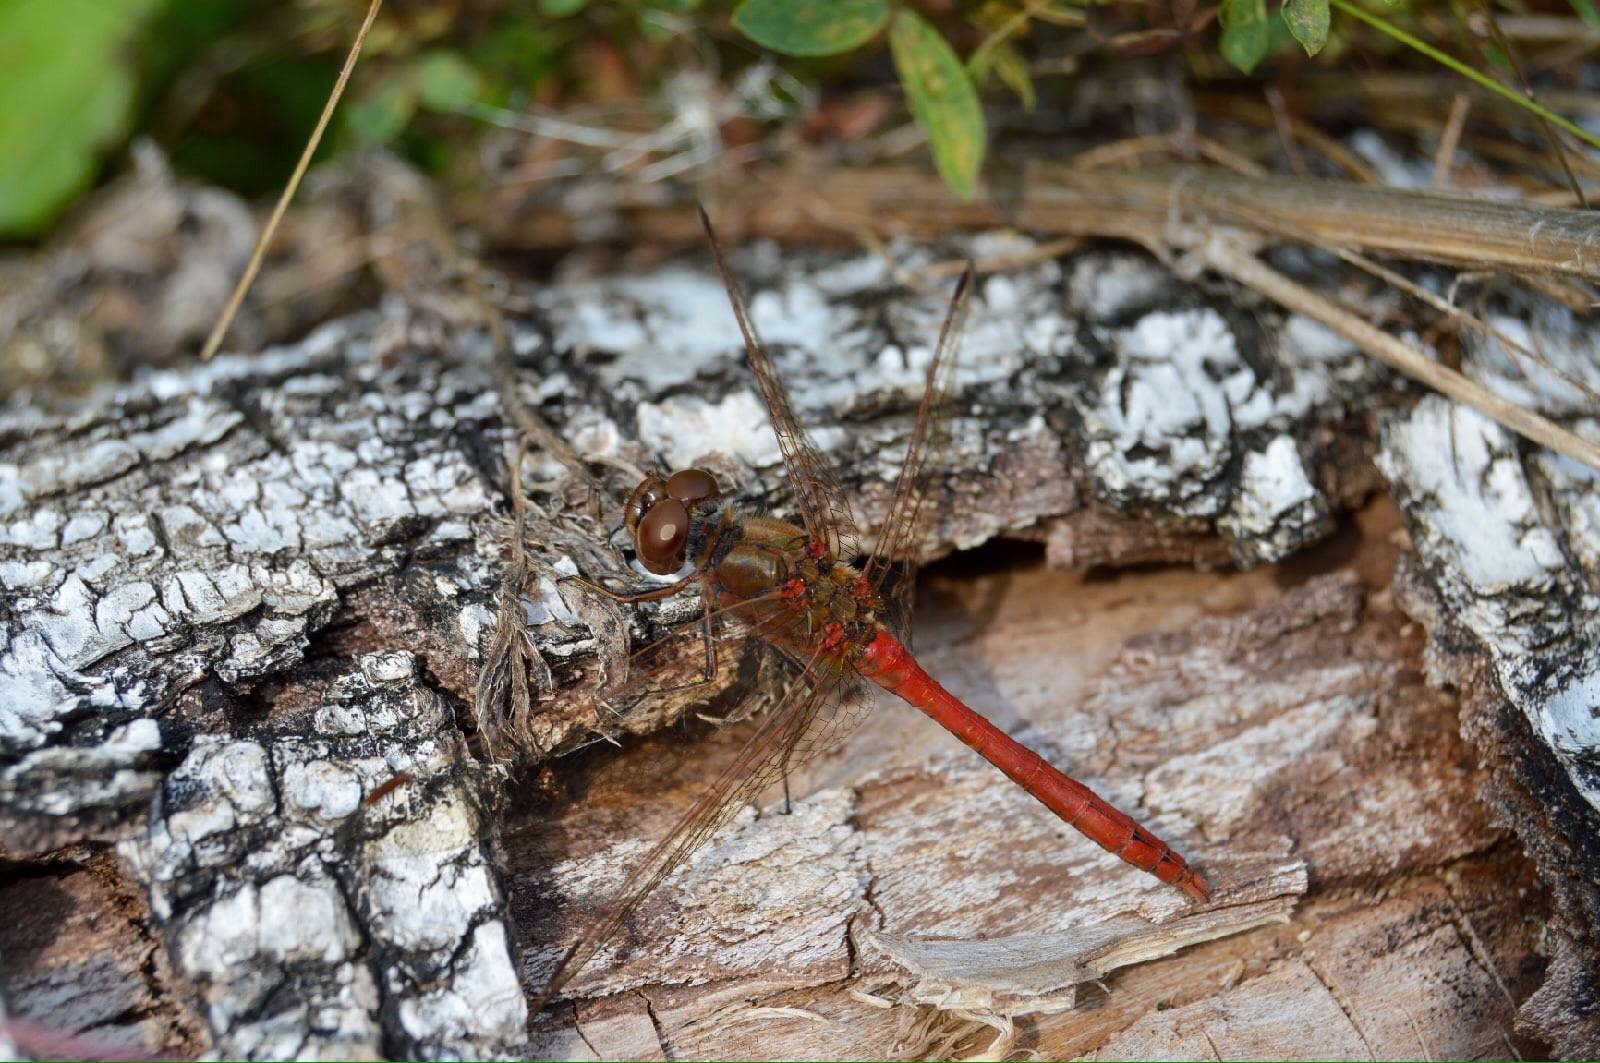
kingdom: Animalia
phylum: Arthropoda
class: Insecta
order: Odonata
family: Libellulidae
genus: Sympetrum
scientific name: Sympetrum vulgatum
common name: Vagrant darter
